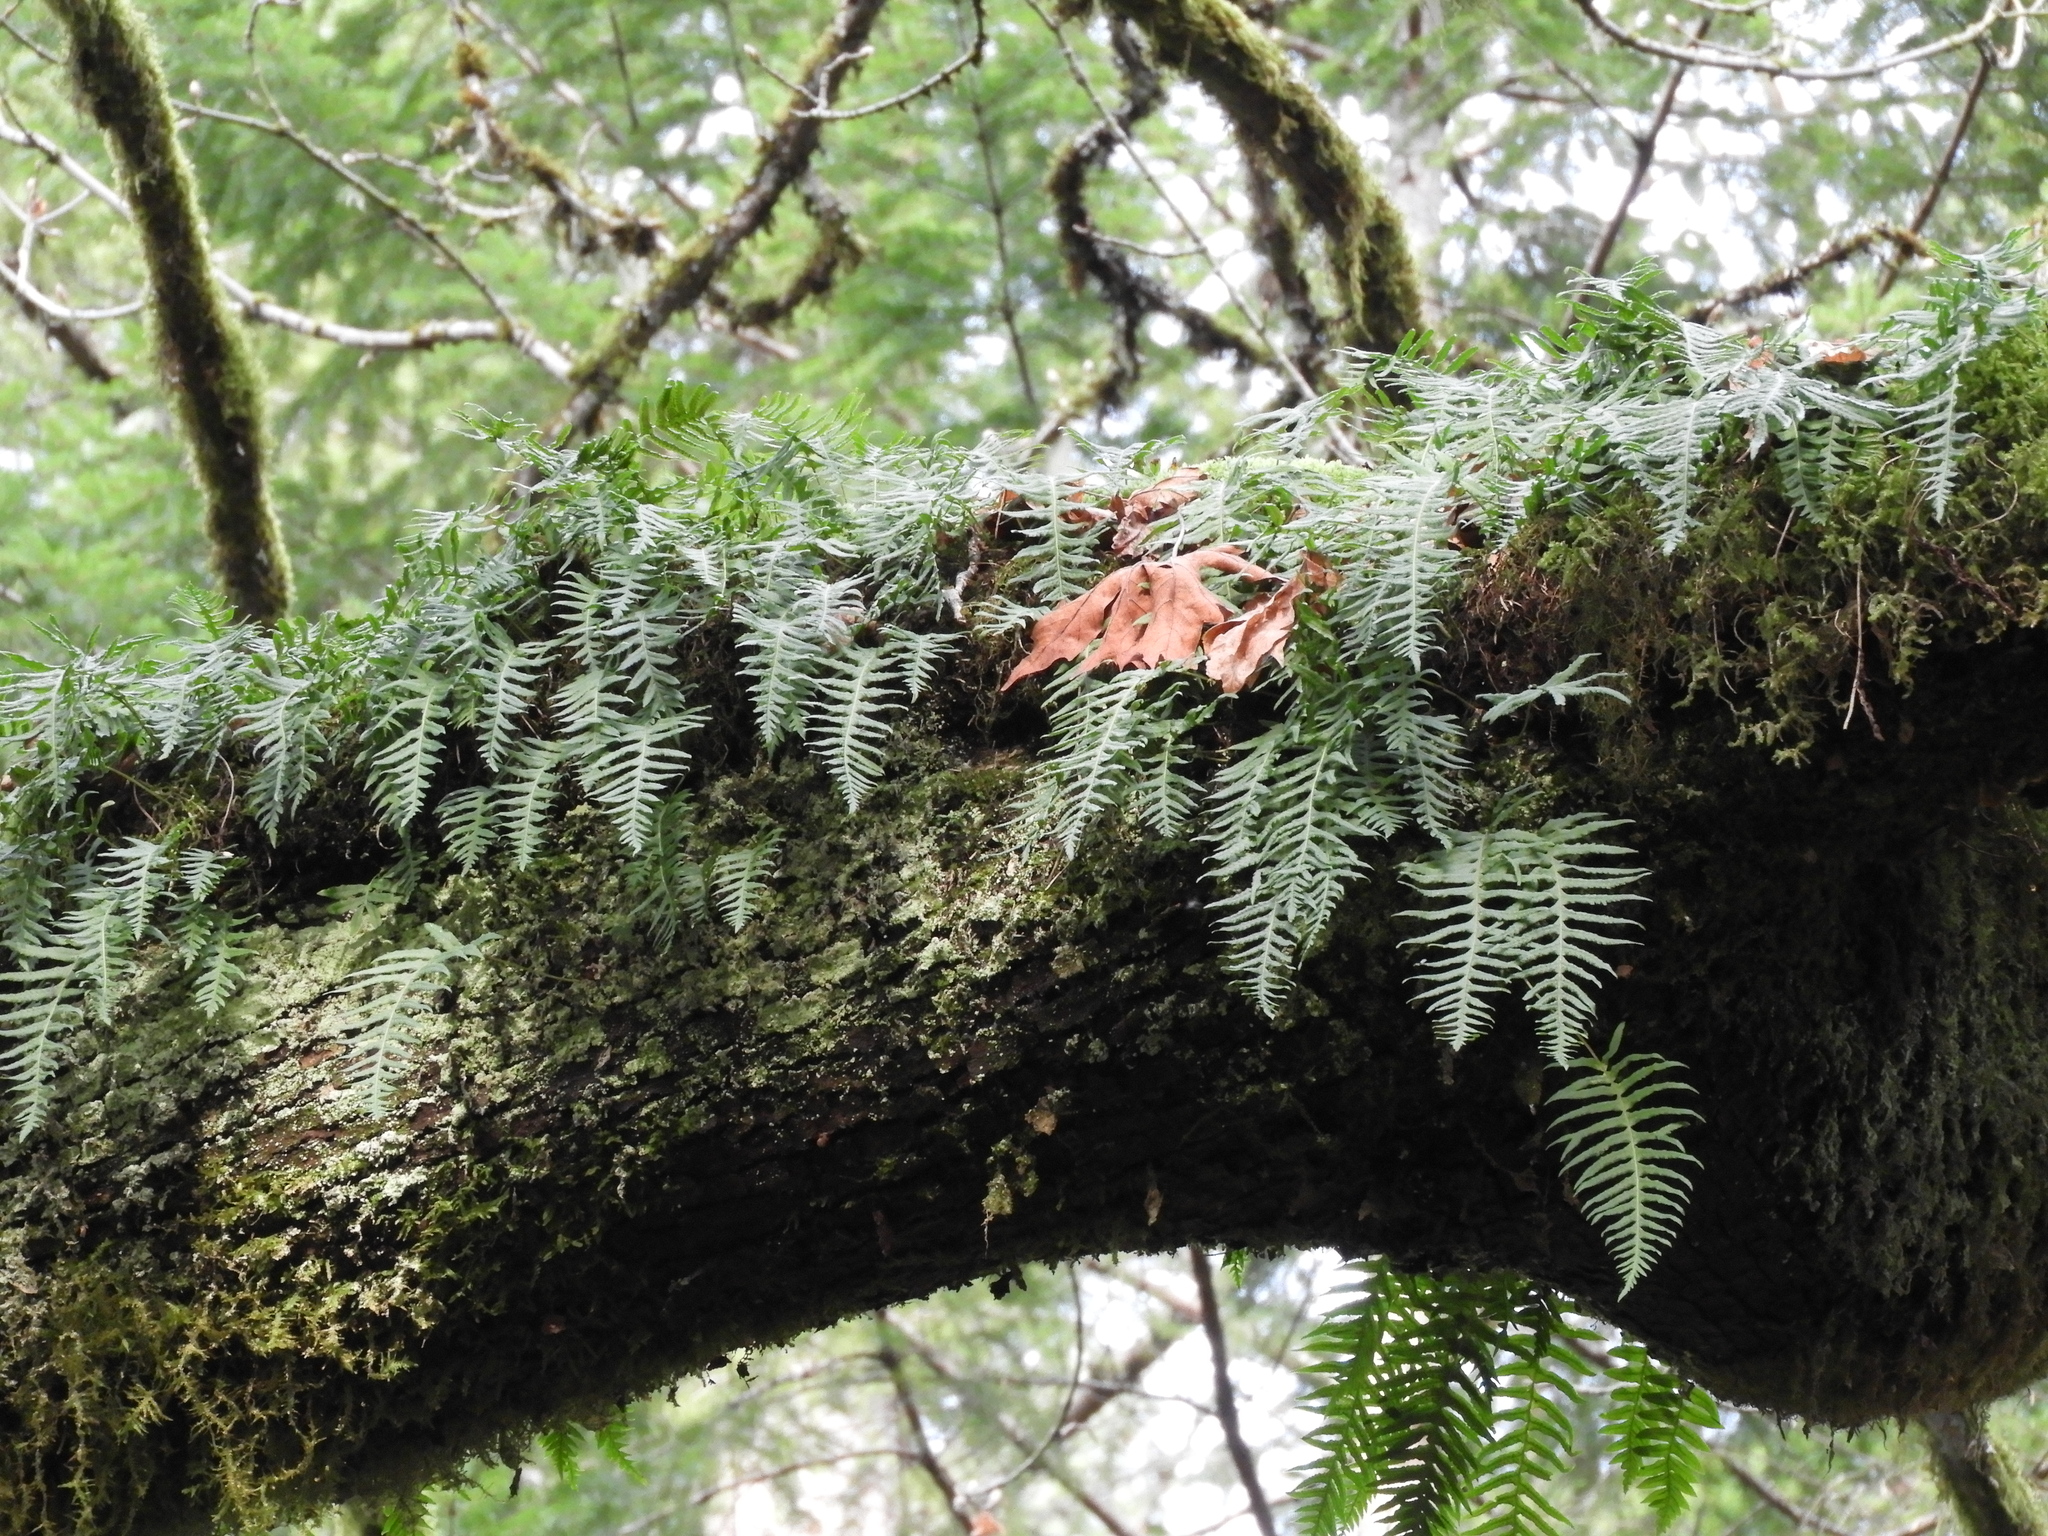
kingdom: Plantae
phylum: Tracheophyta
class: Polypodiopsida
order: Polypodiales
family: Polypodiaceae
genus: Polypodium
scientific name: Polypodium glycyrrhiza
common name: Licorice fern
